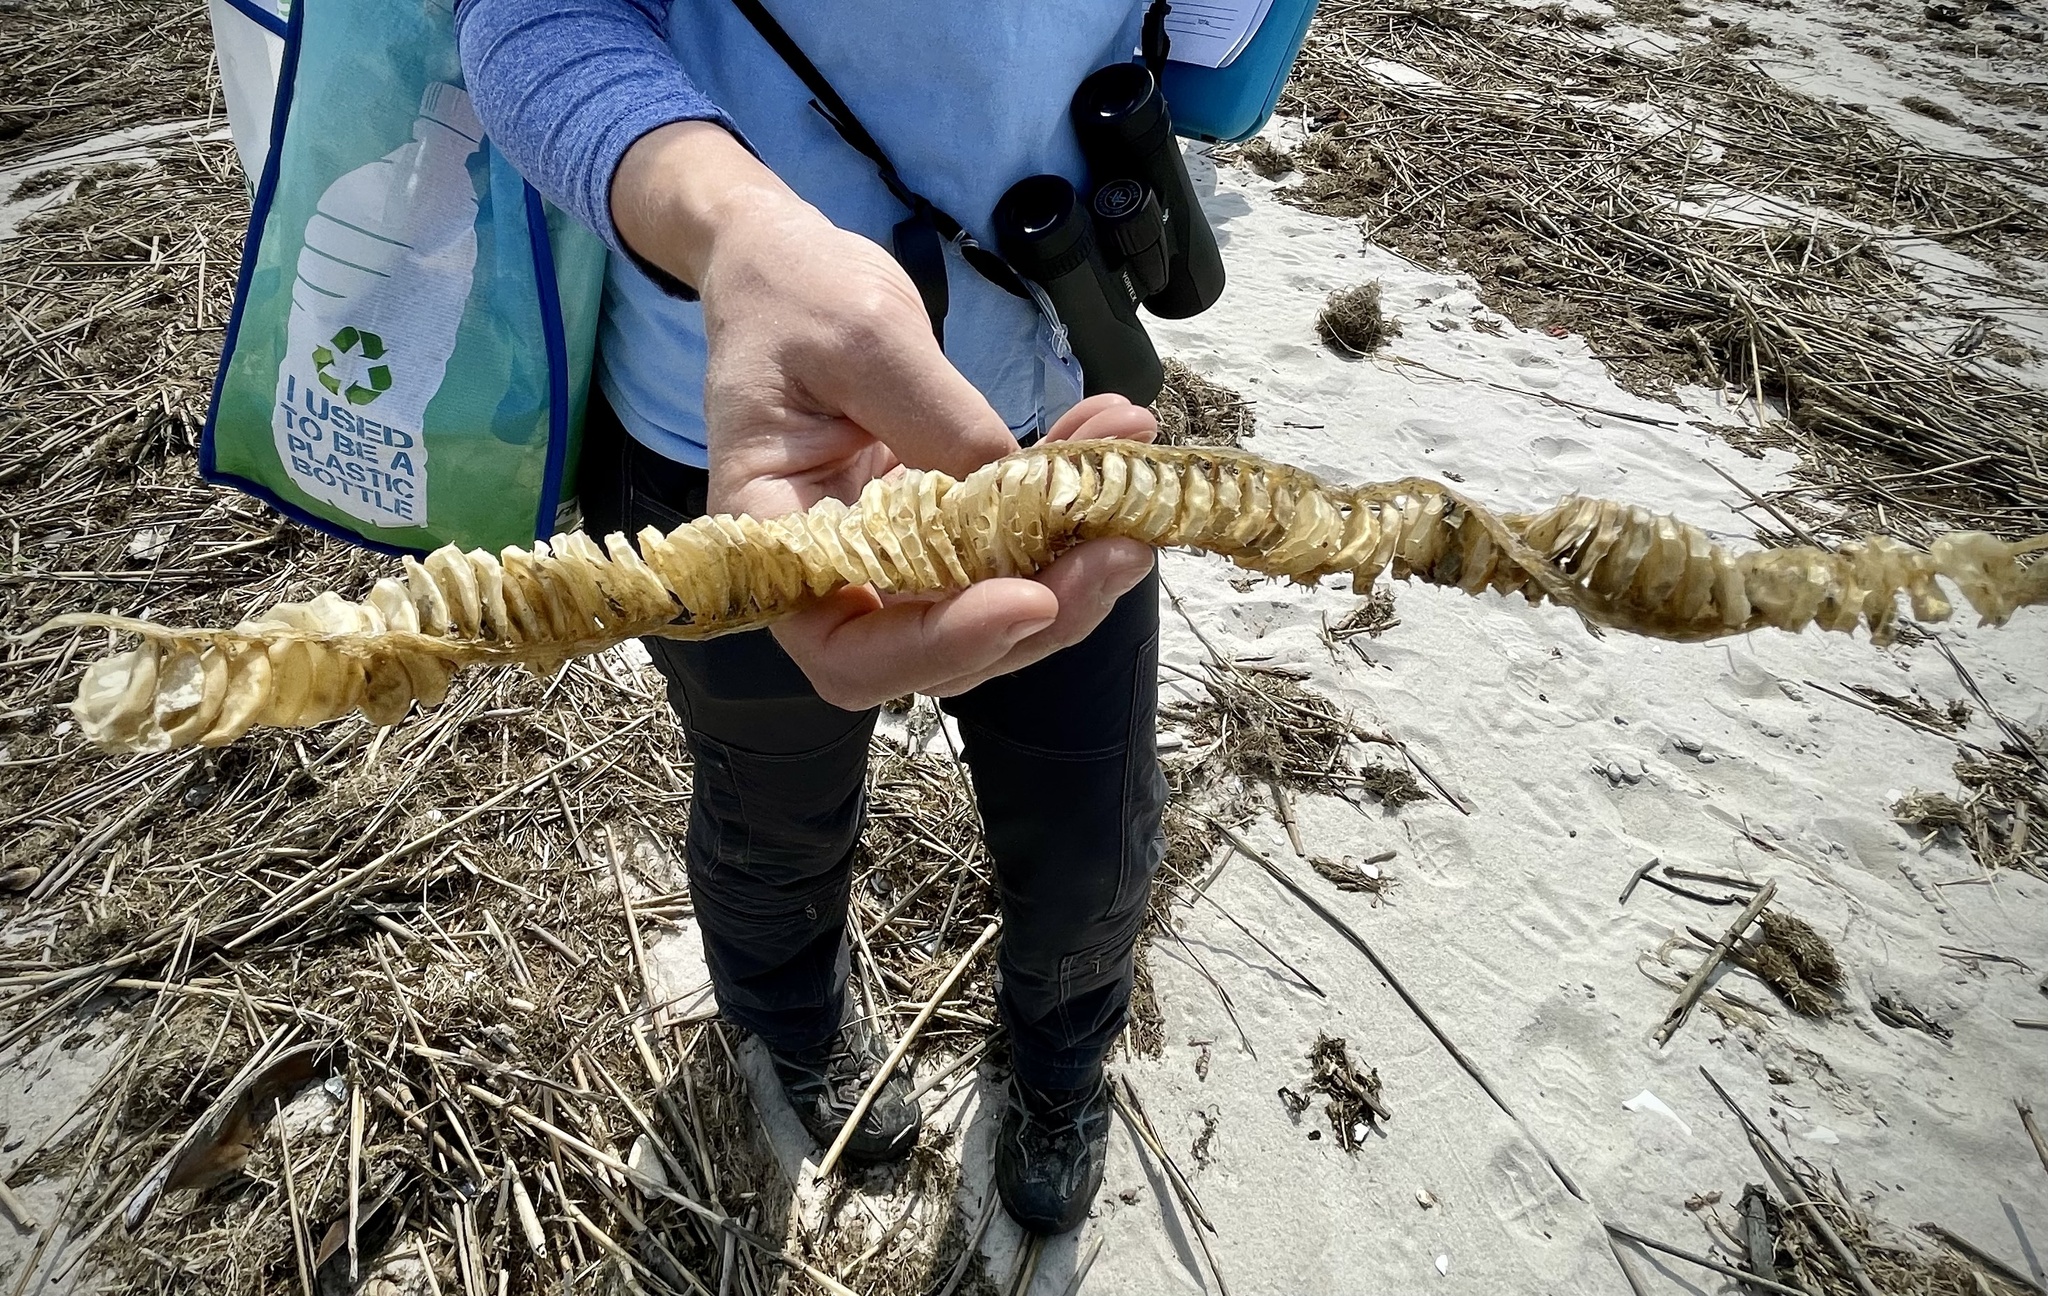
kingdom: Animalia
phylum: Mollusca
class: Gastropoda
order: Neogastropoda
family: Busyconidae
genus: Busycon
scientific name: Busycon carica
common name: Knobbed whelk
